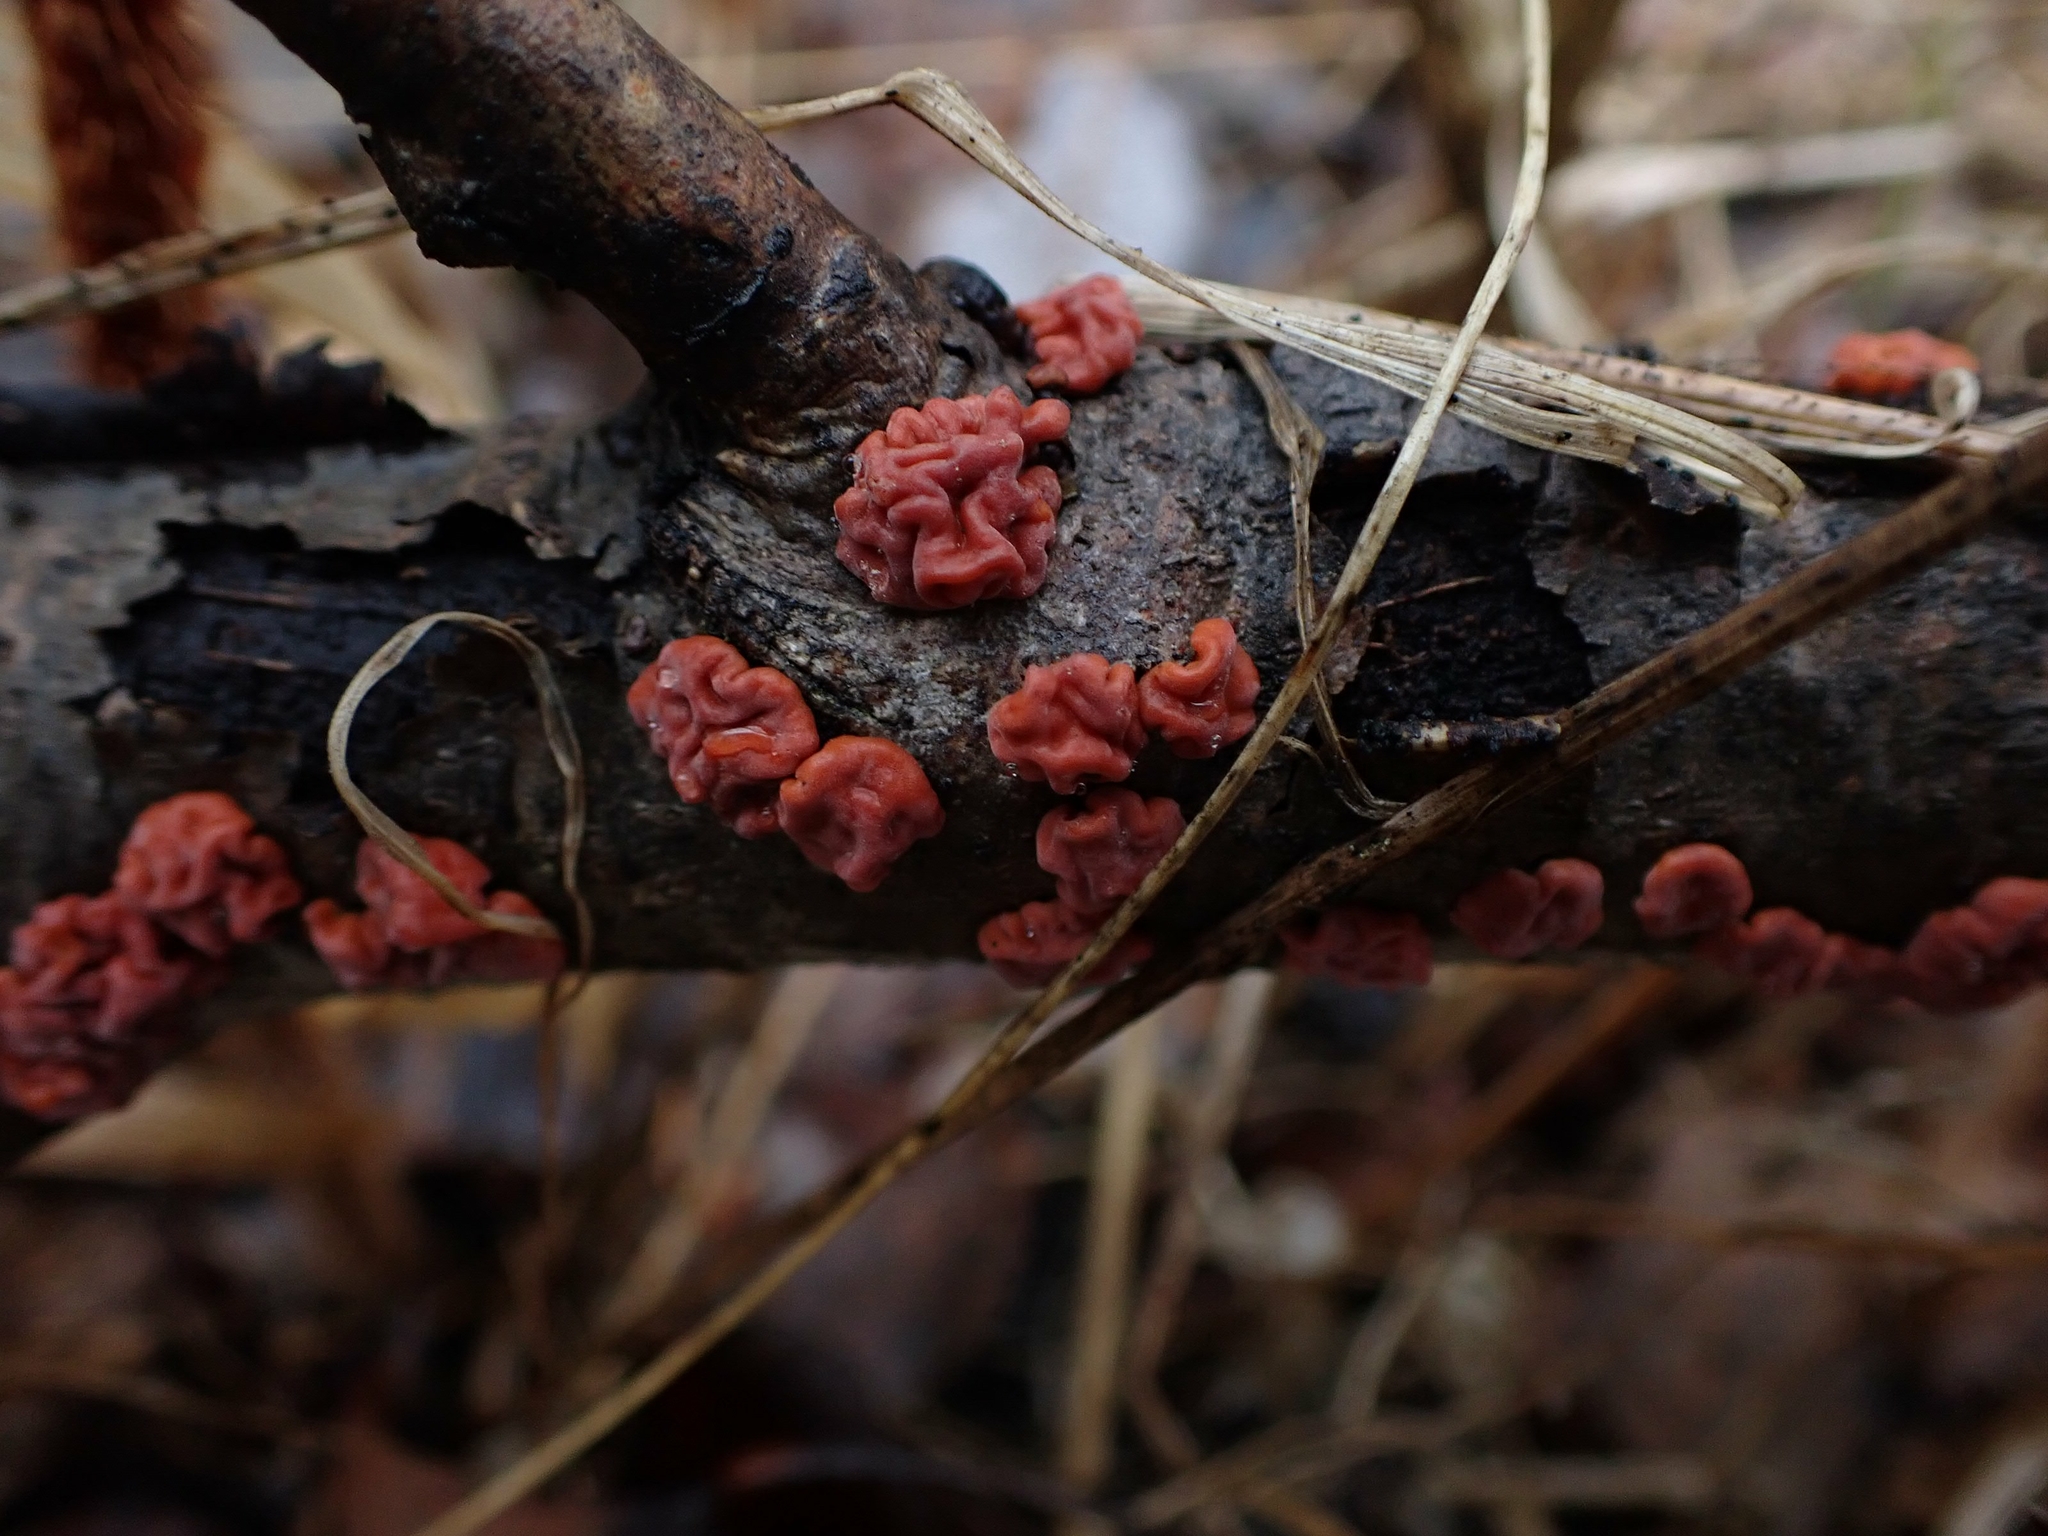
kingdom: Fungi
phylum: Basidiomycota
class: Agaricomycetes
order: Russulales
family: Peniophoraceae
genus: Peniophora
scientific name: Peniophora rufa
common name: Red tree brain fungus
